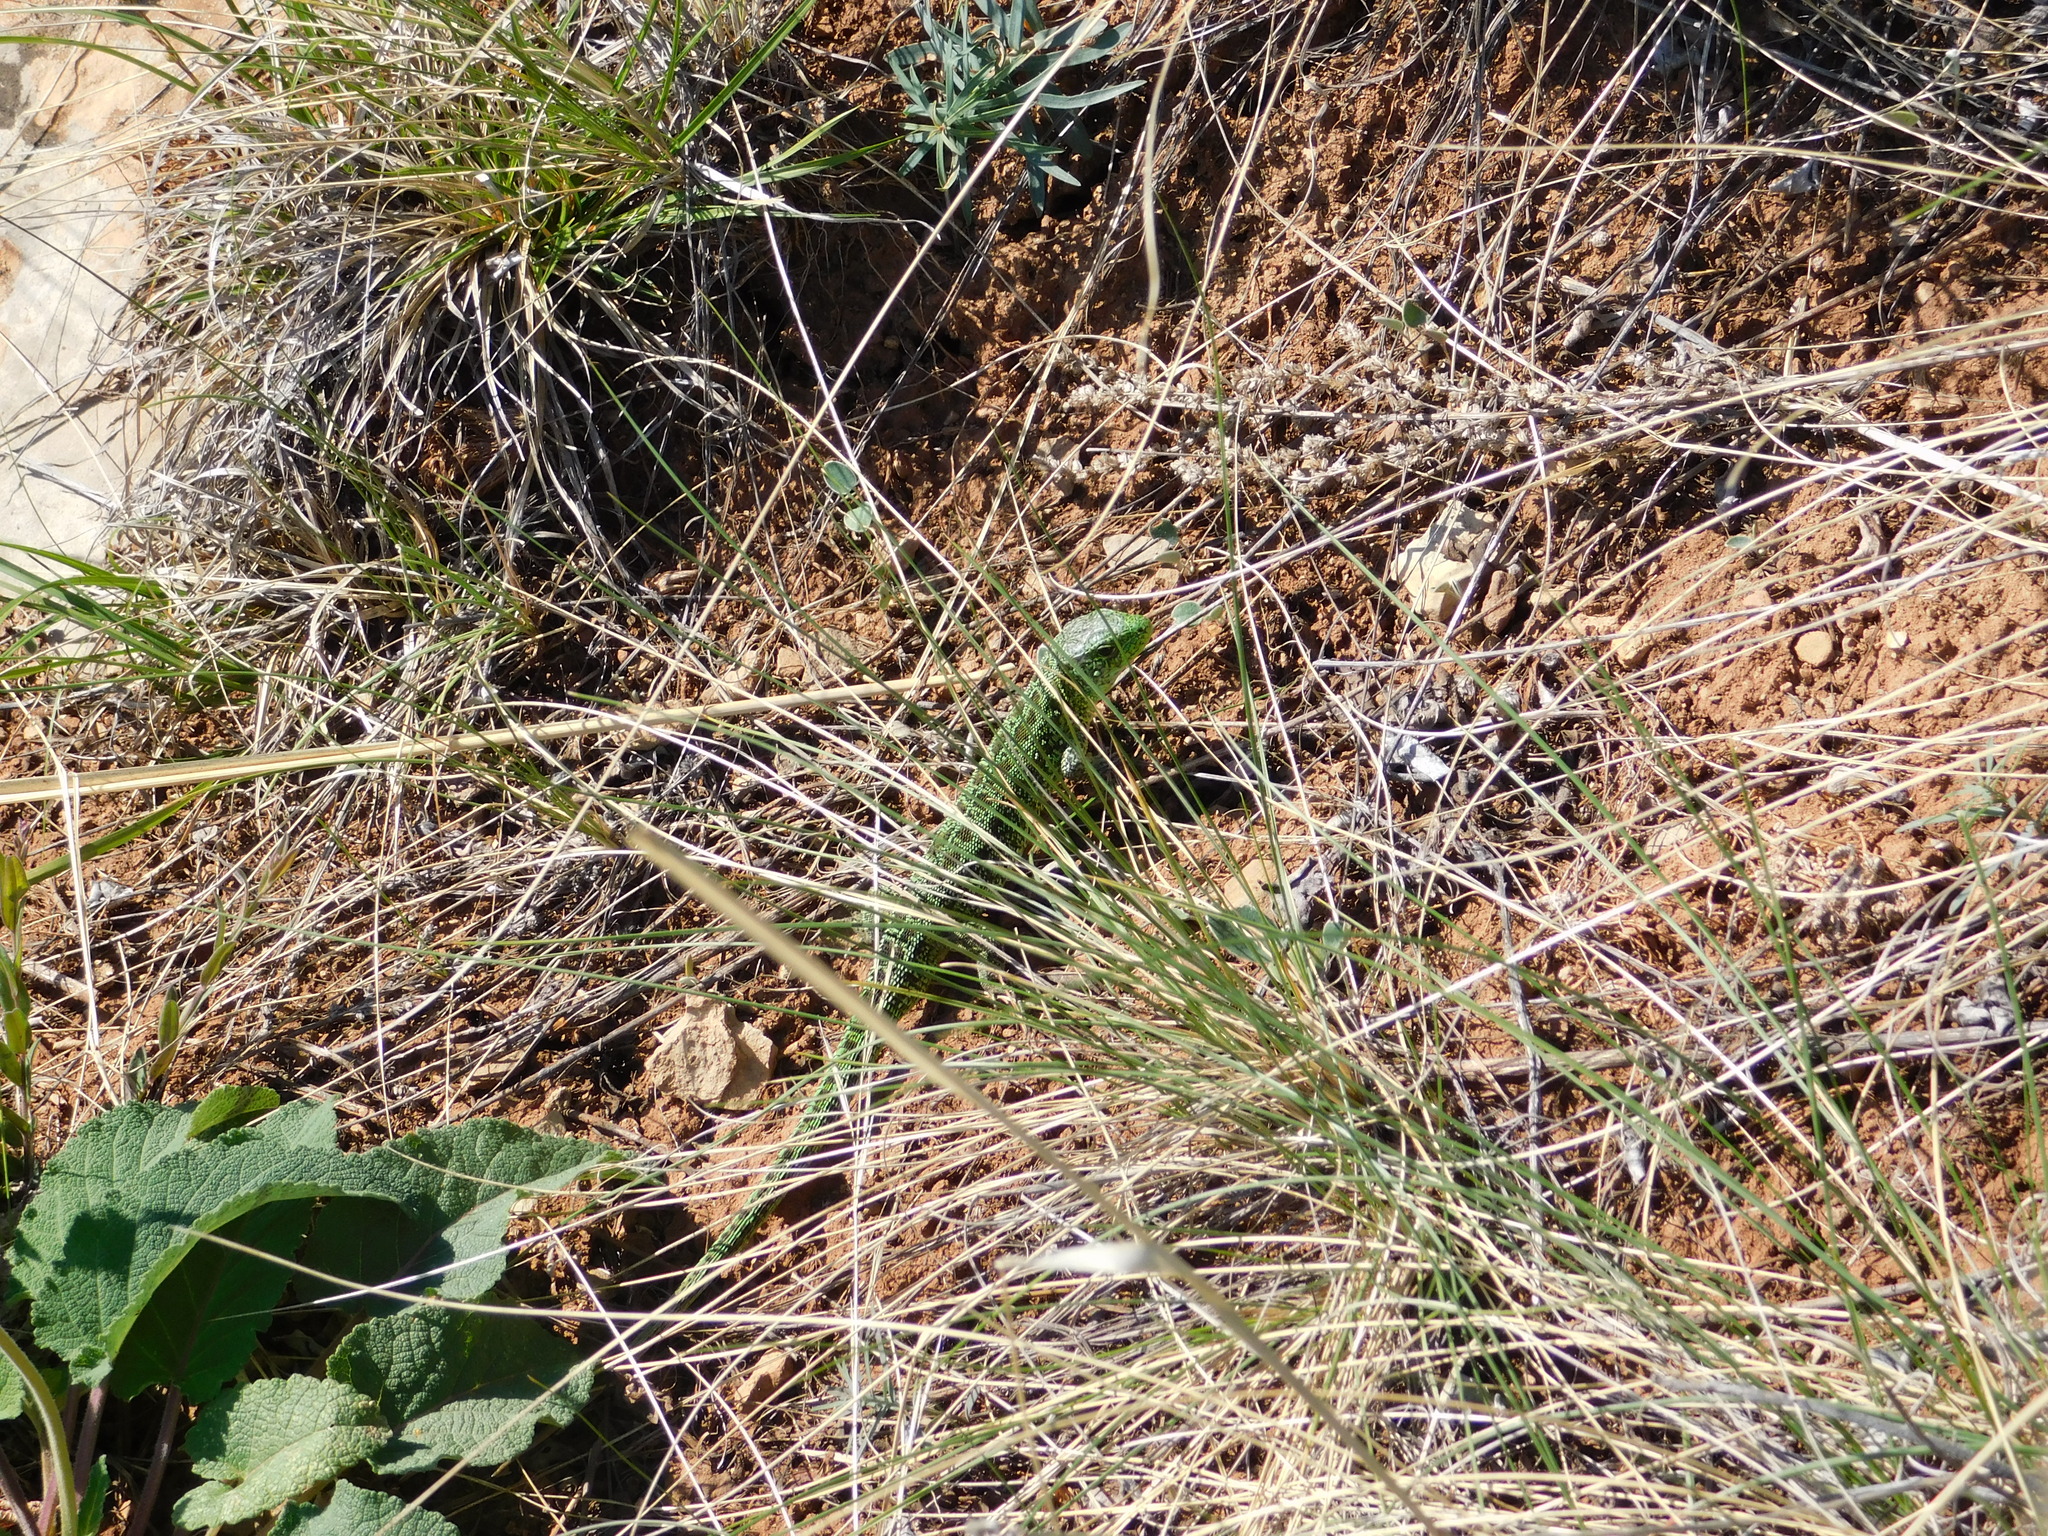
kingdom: Animalia
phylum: Chordata
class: Squamata
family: Lacertidae
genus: Lacerta
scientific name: Lacerta agilis
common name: Sand lizard
